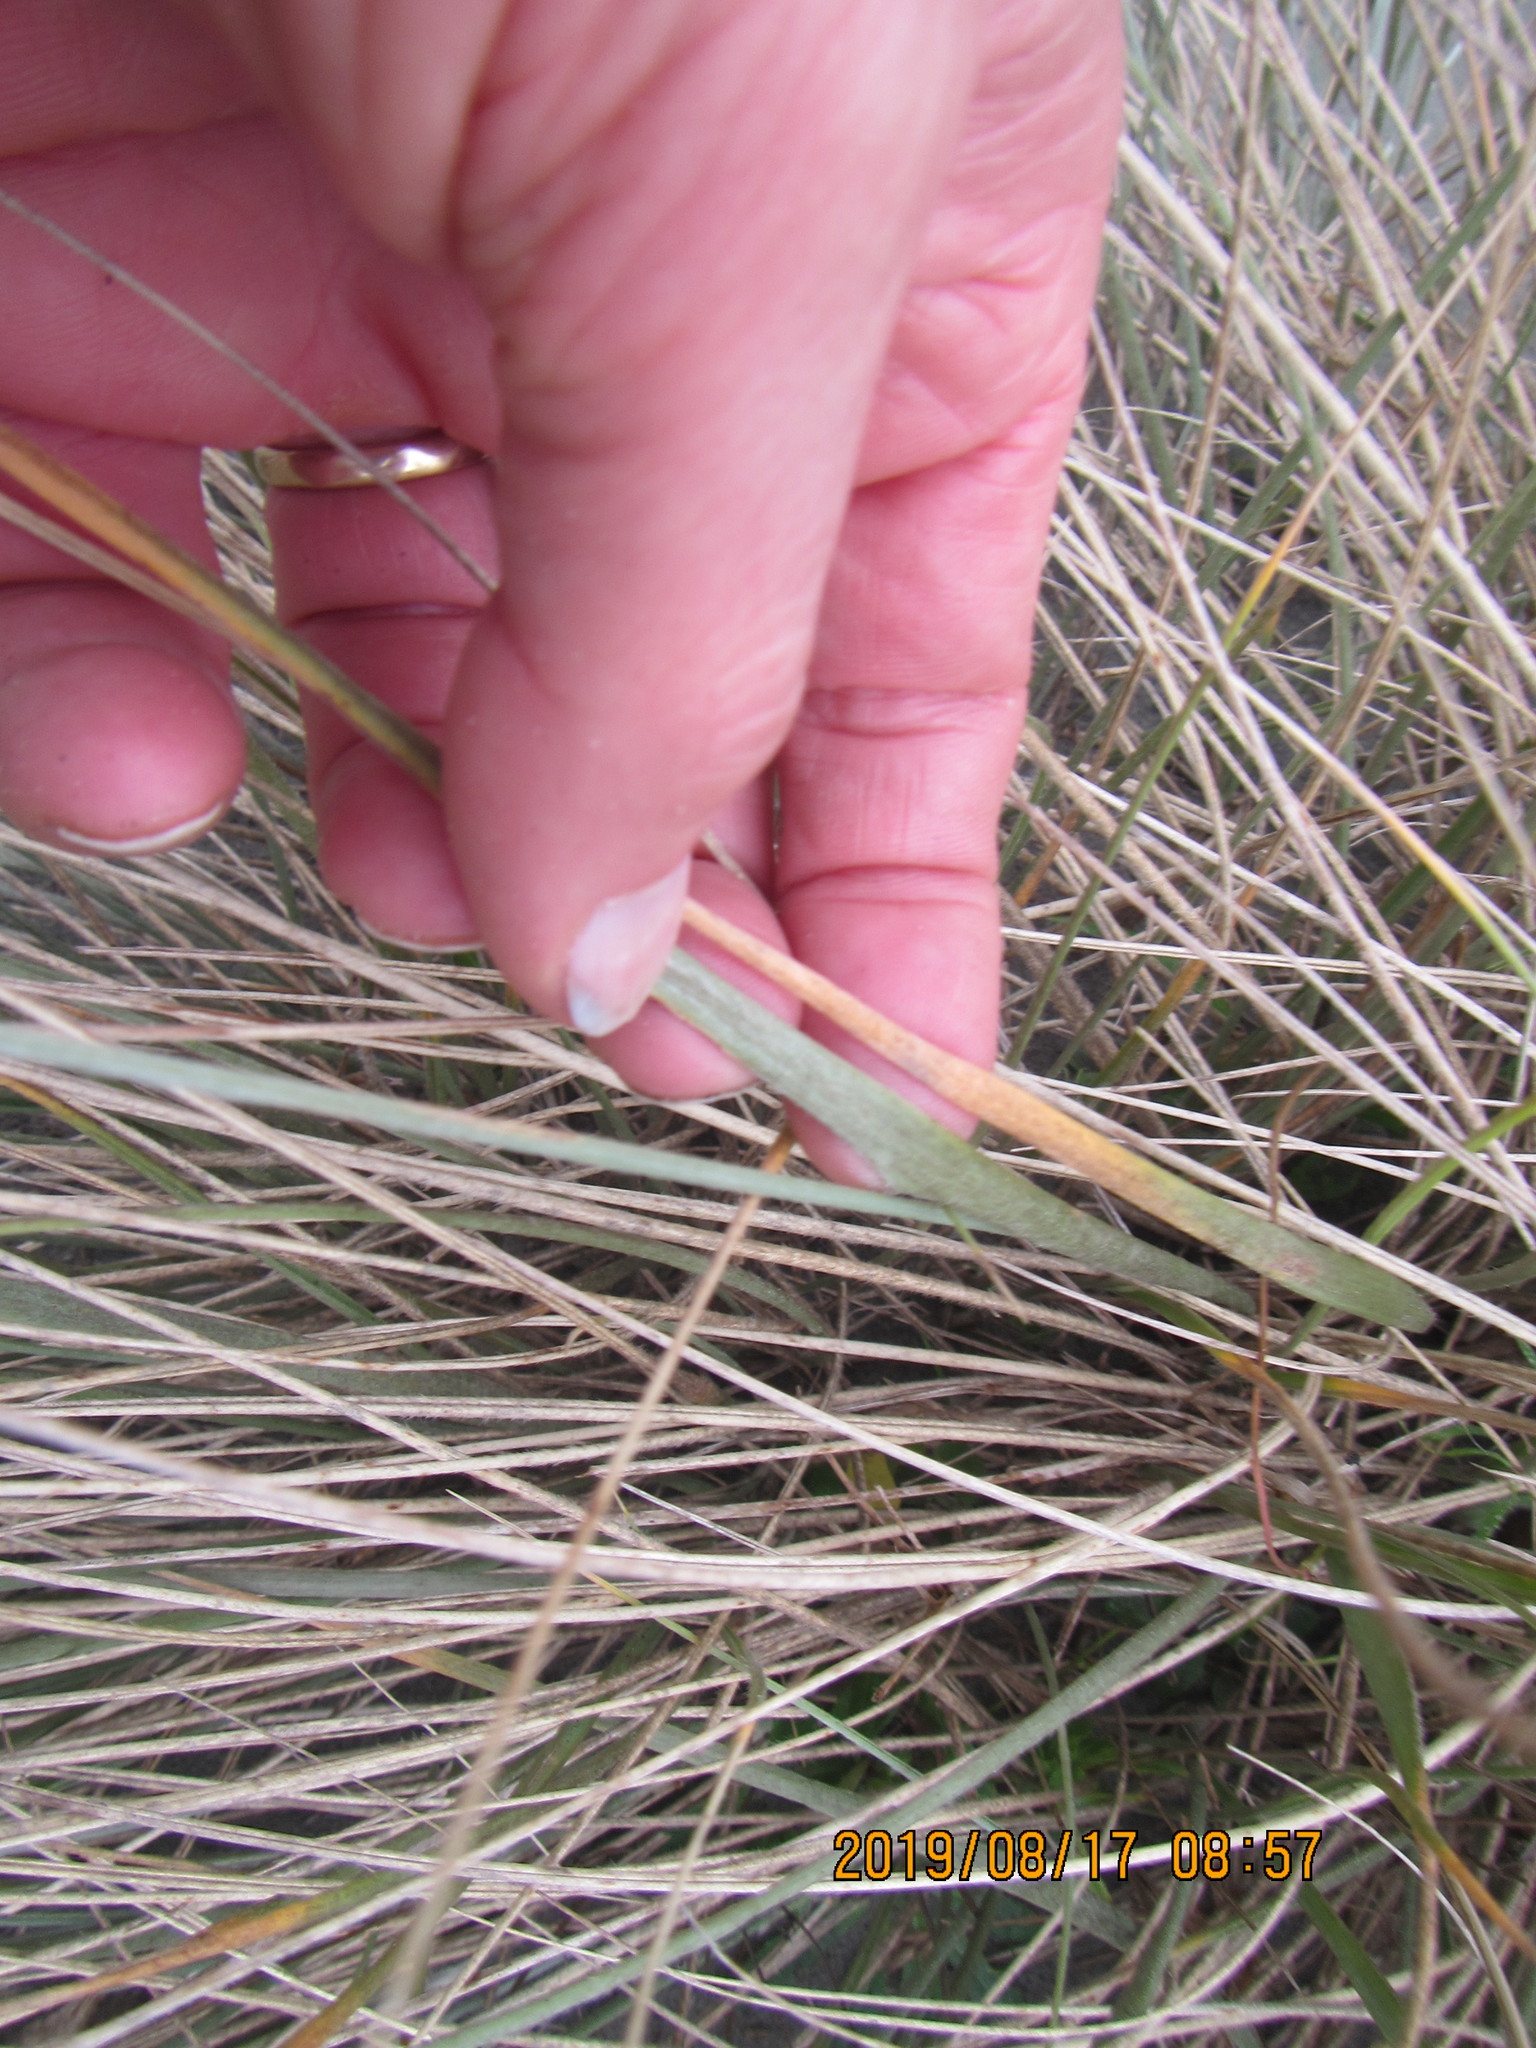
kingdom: Plantae
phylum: Tracheophyta
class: Liliopsida
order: Poales
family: Poaceae
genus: Spinifex
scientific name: Spinifex sericeus
